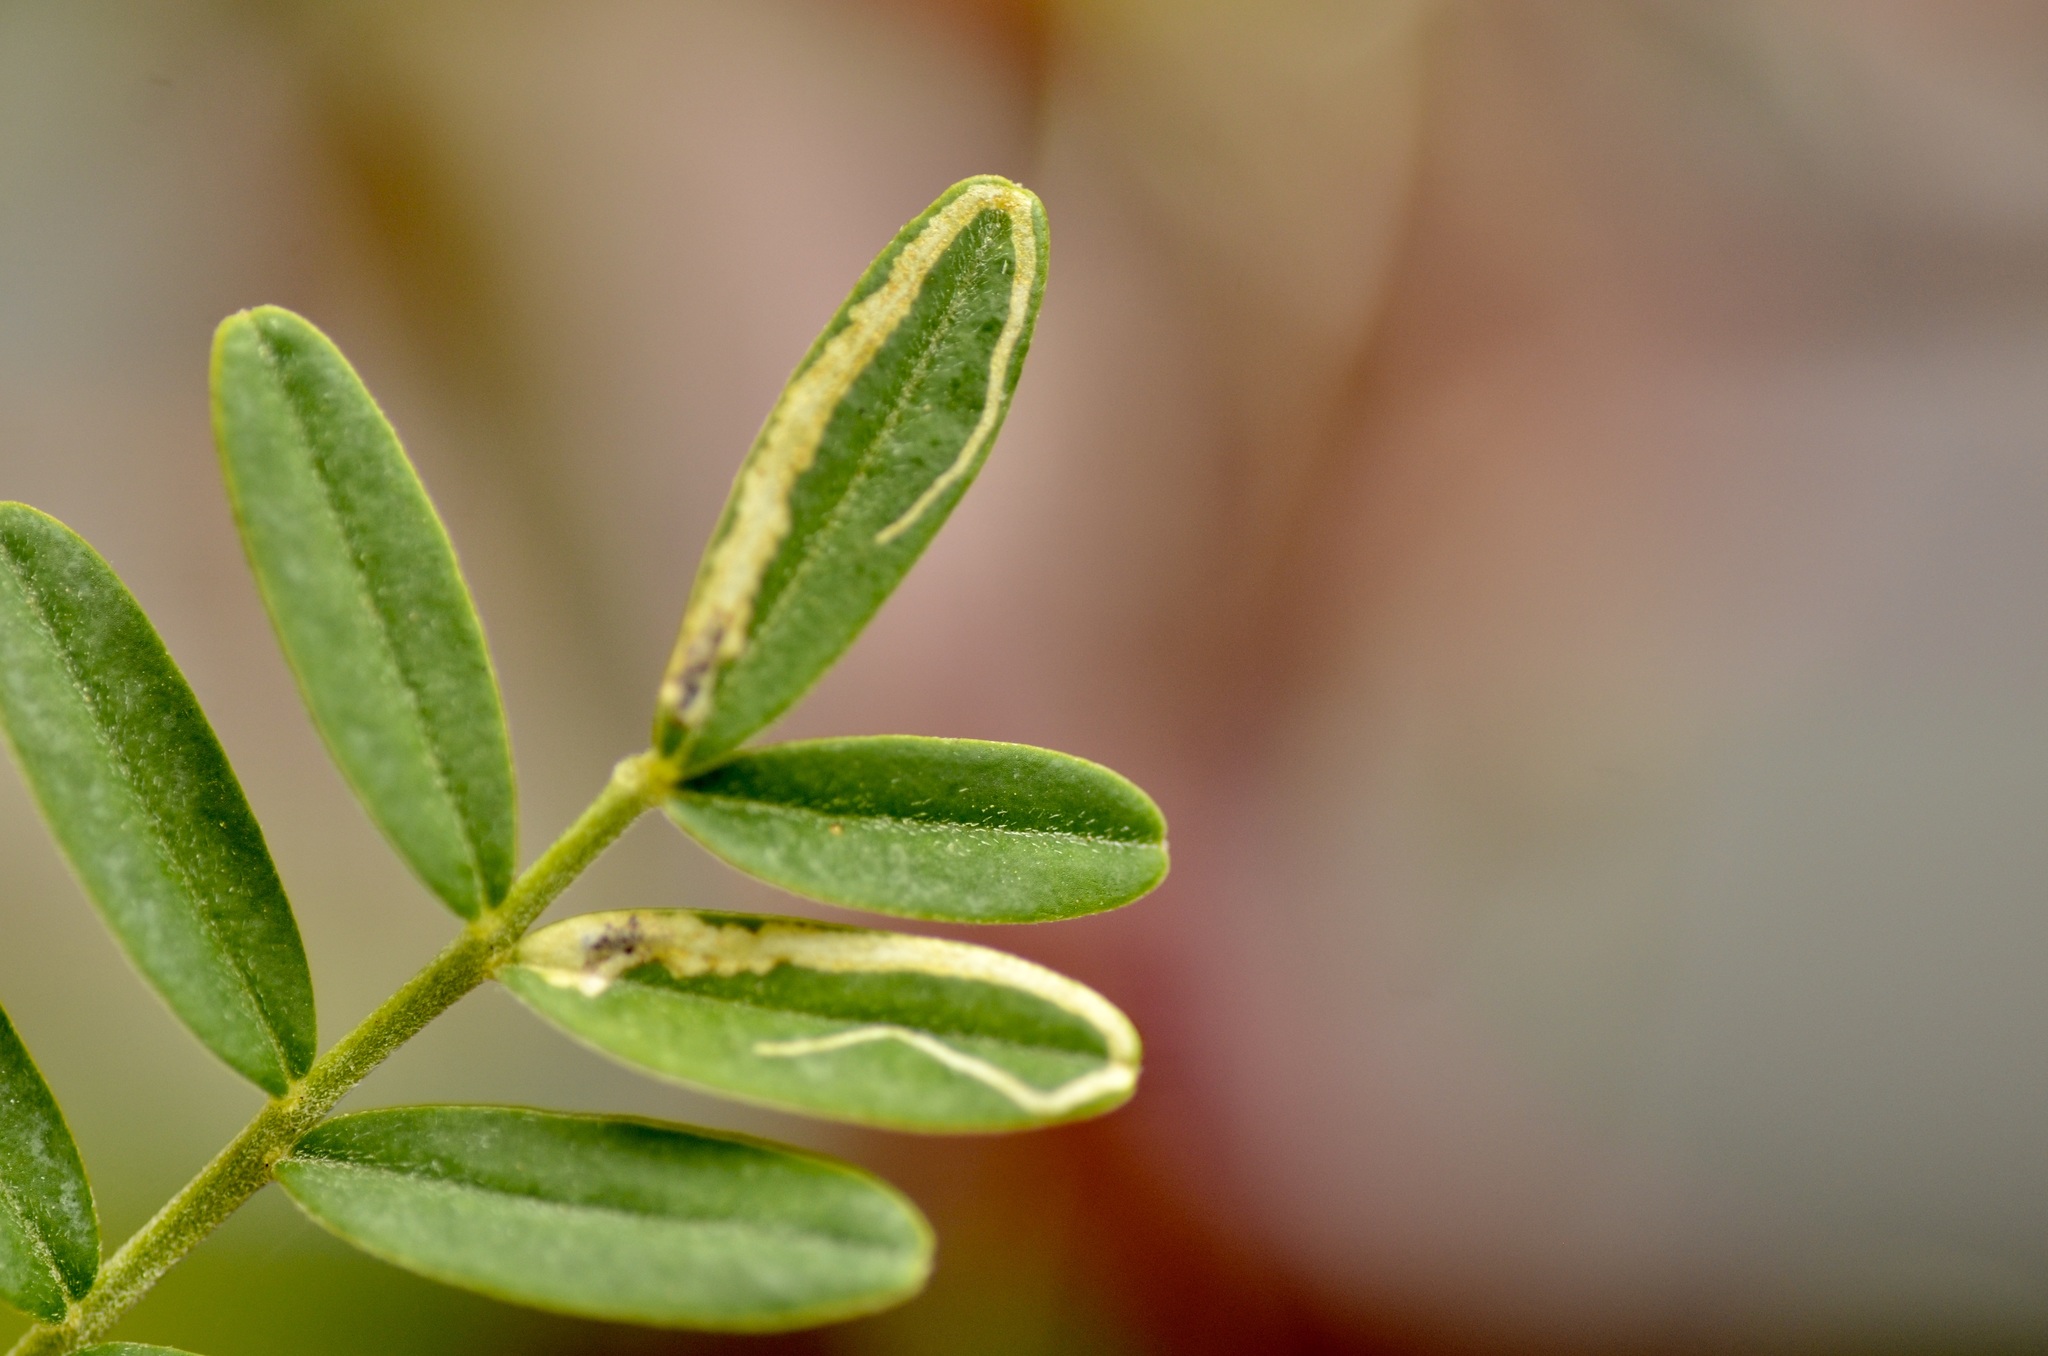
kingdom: Animalia
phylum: Arthropoda
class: Insecta
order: Diptera
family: Agromyzidae
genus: Liriomyza
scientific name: Liriomyza clianthi
